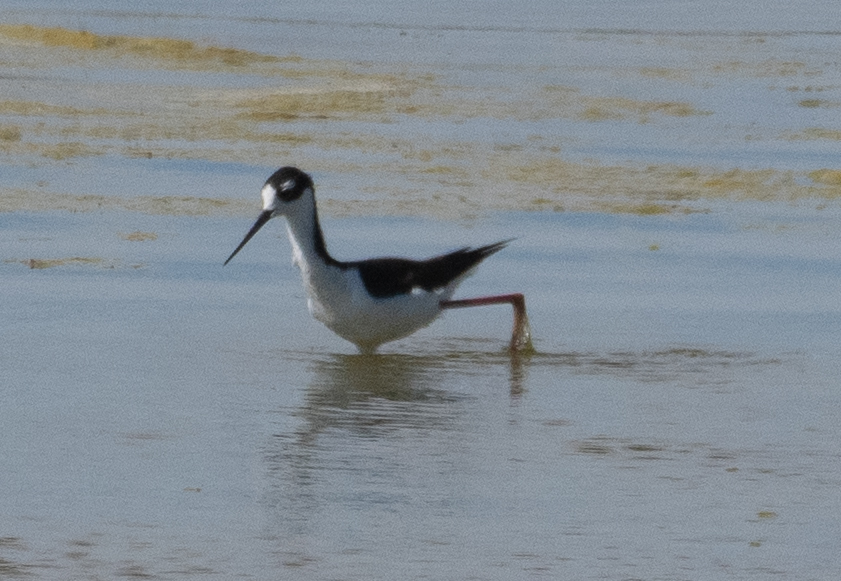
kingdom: Animalia
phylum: Chordata
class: Aves
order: Charadriiformes
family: Recurvirostridae
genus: Himantopus
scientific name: Himantopus mexicanus
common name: Black-necked stilt
